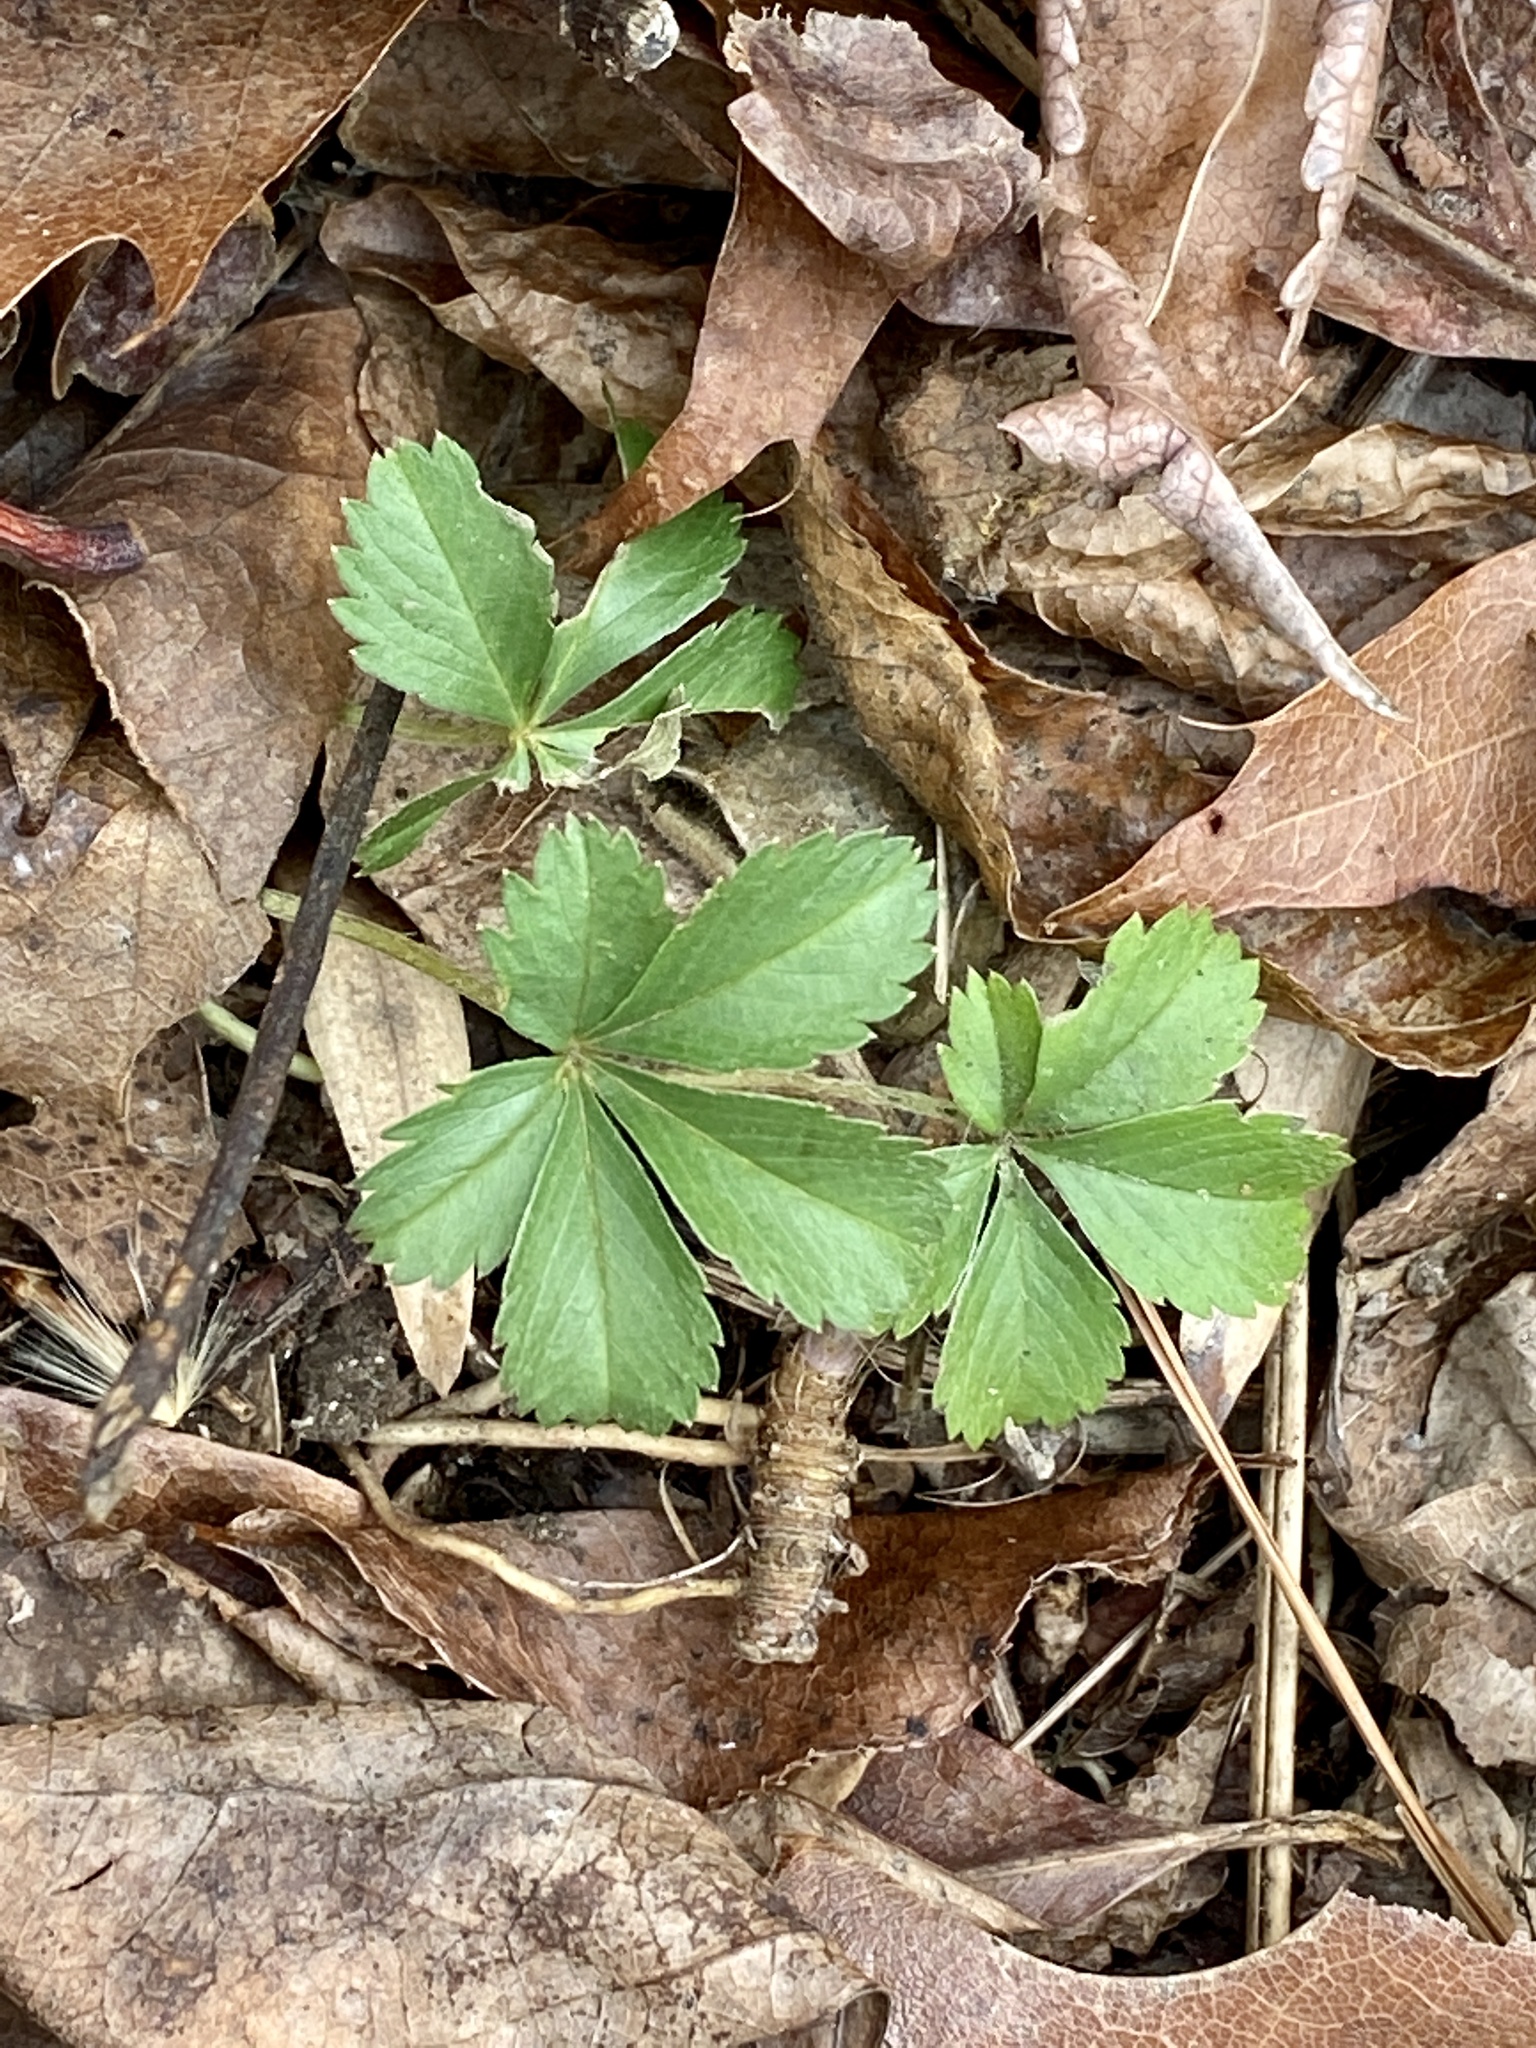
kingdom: Plantae
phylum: Tracheophyta
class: Magnoliopsida
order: Rosales
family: Rosaceae
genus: Potentilla
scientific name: Potentilla canadensis
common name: Canada cinquefoil
